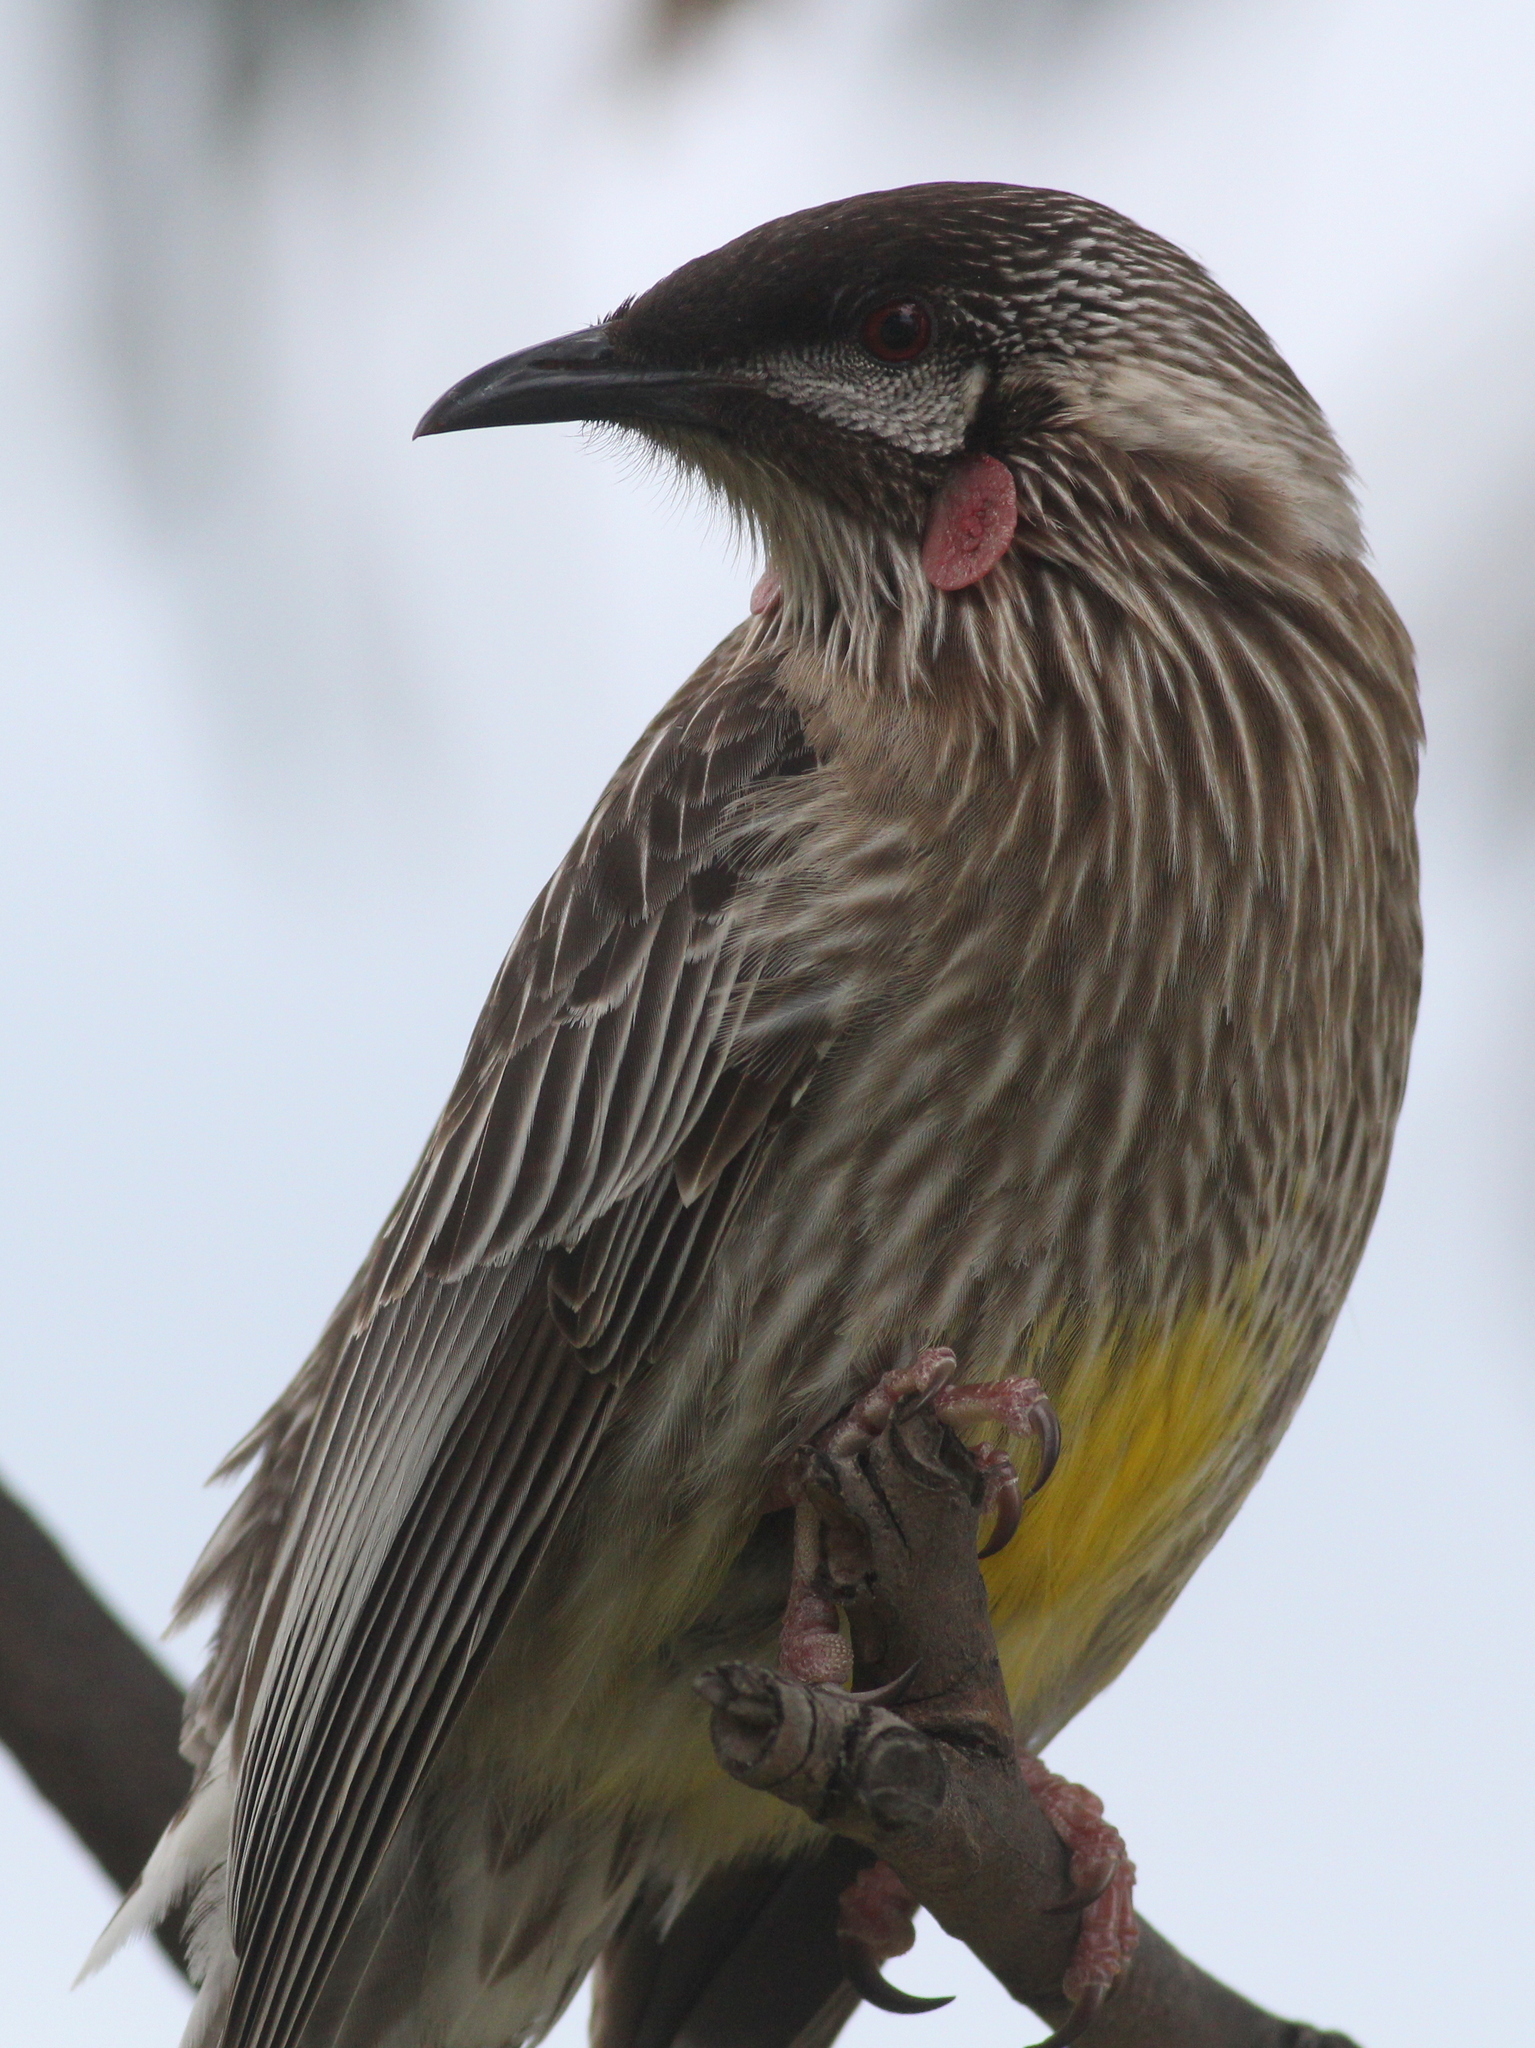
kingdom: Animalia
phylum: Chordata
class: Aves
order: Passeriformes
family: Meliphagidae
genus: Anthochaera
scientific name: Anthochaera carunculata
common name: Red wattlebird
